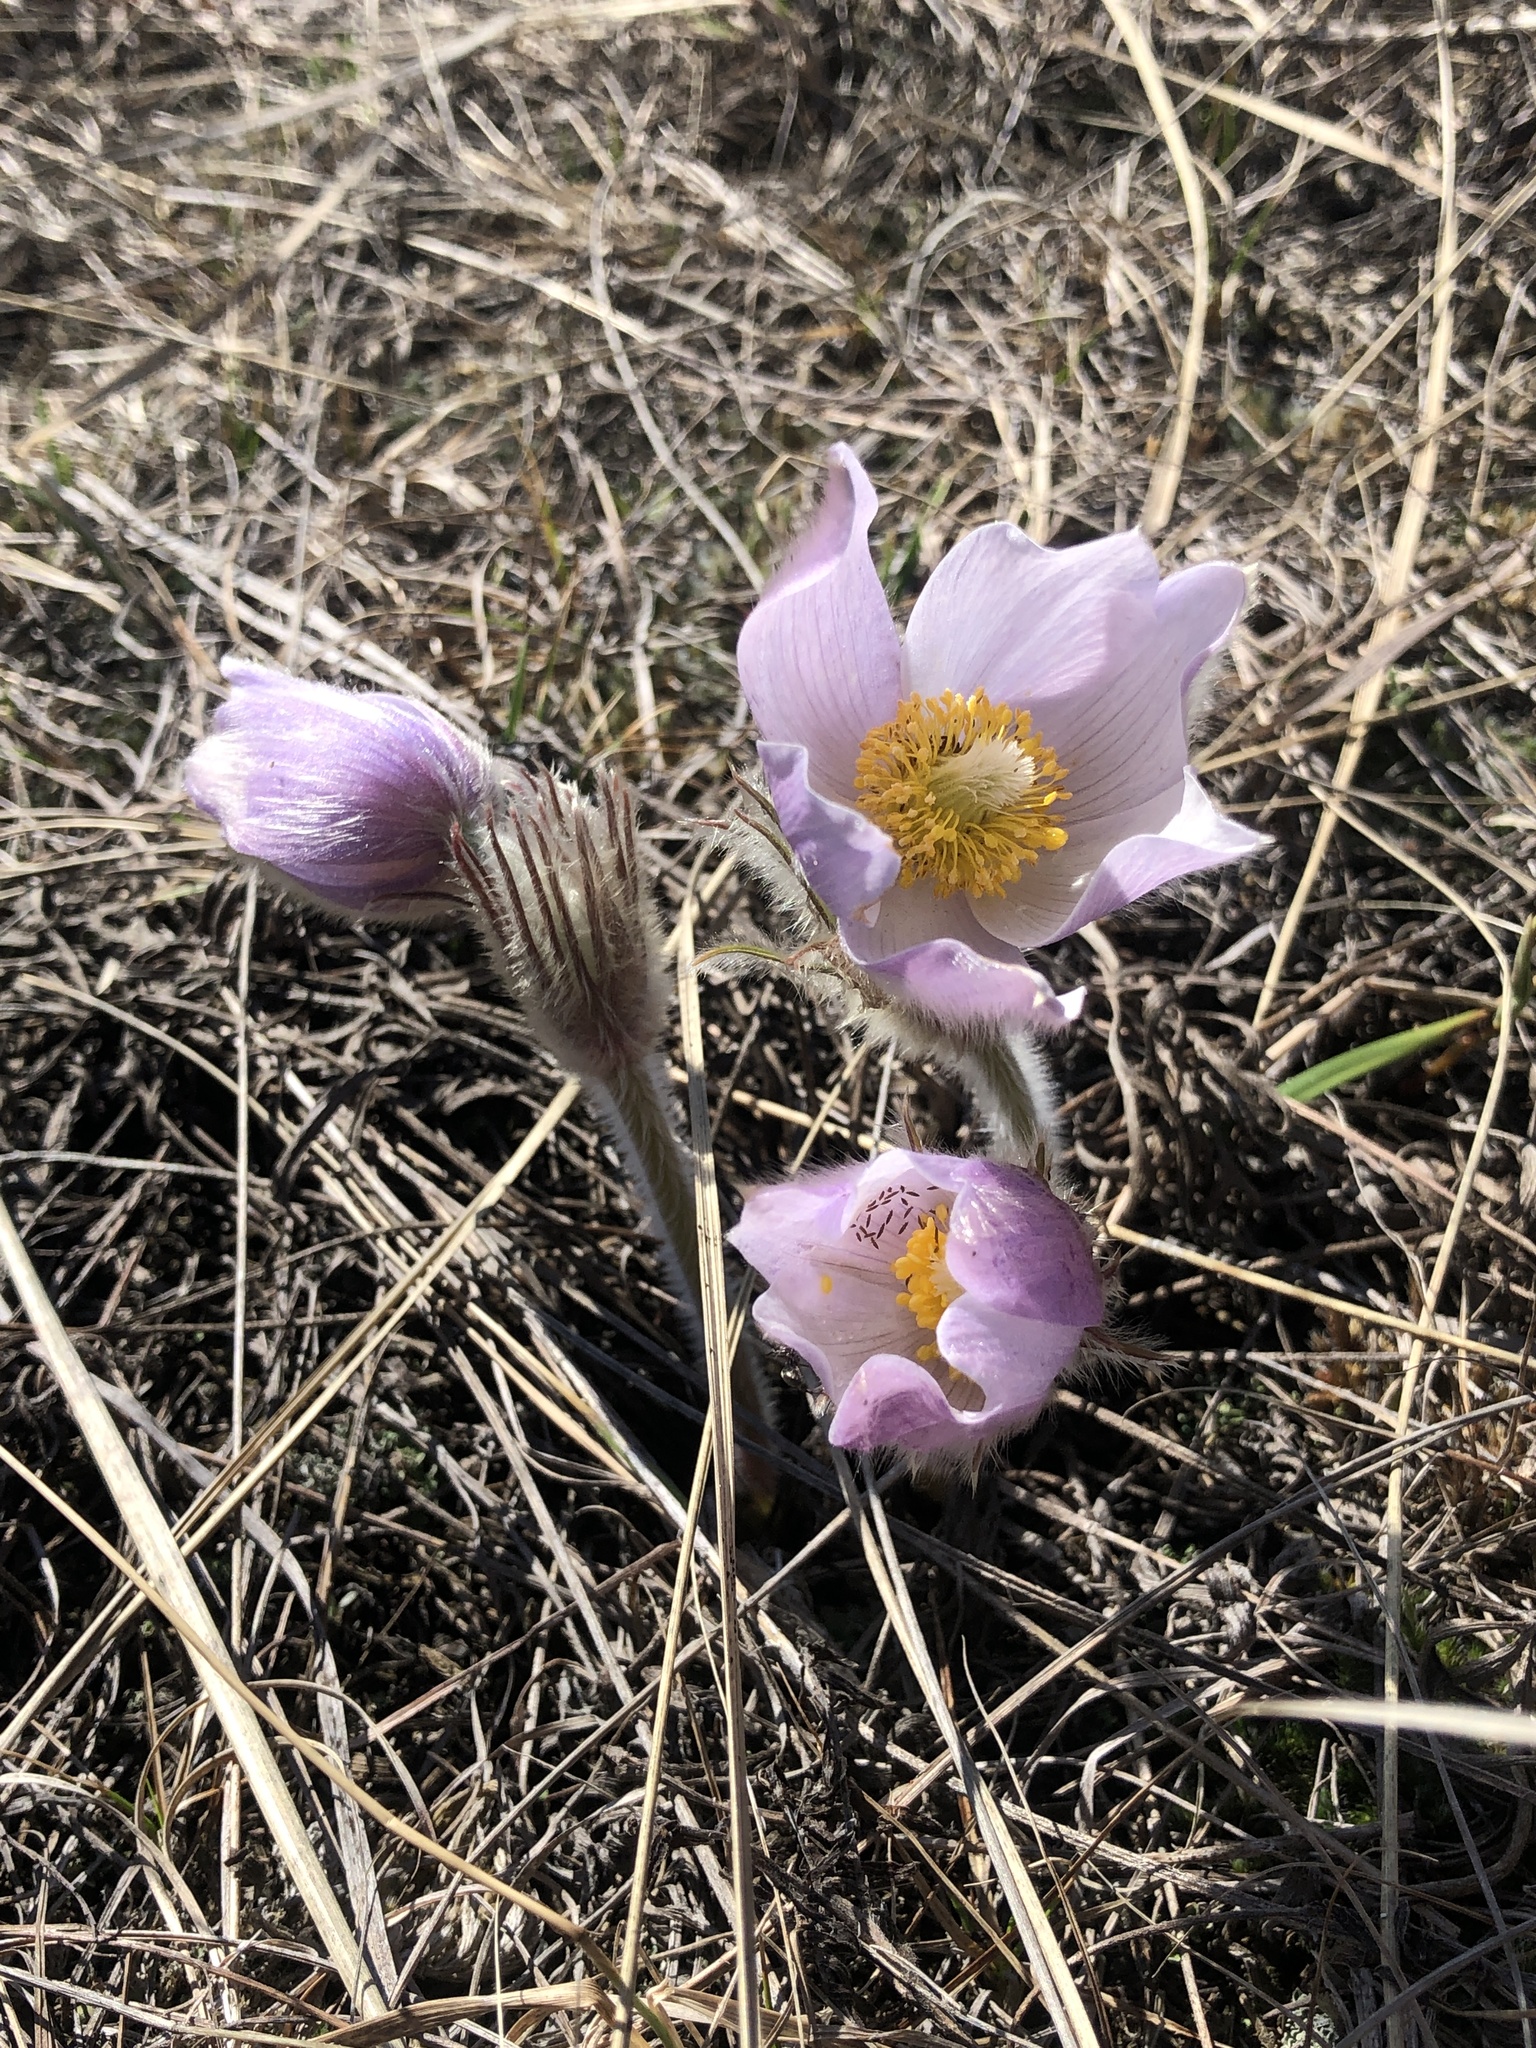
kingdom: Plantae
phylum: Tracheophyta
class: Magnoliopsida
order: Ranunculales
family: Ranunculaceae
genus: Pulsatilla
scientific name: Pulsatilla nuttalliana
